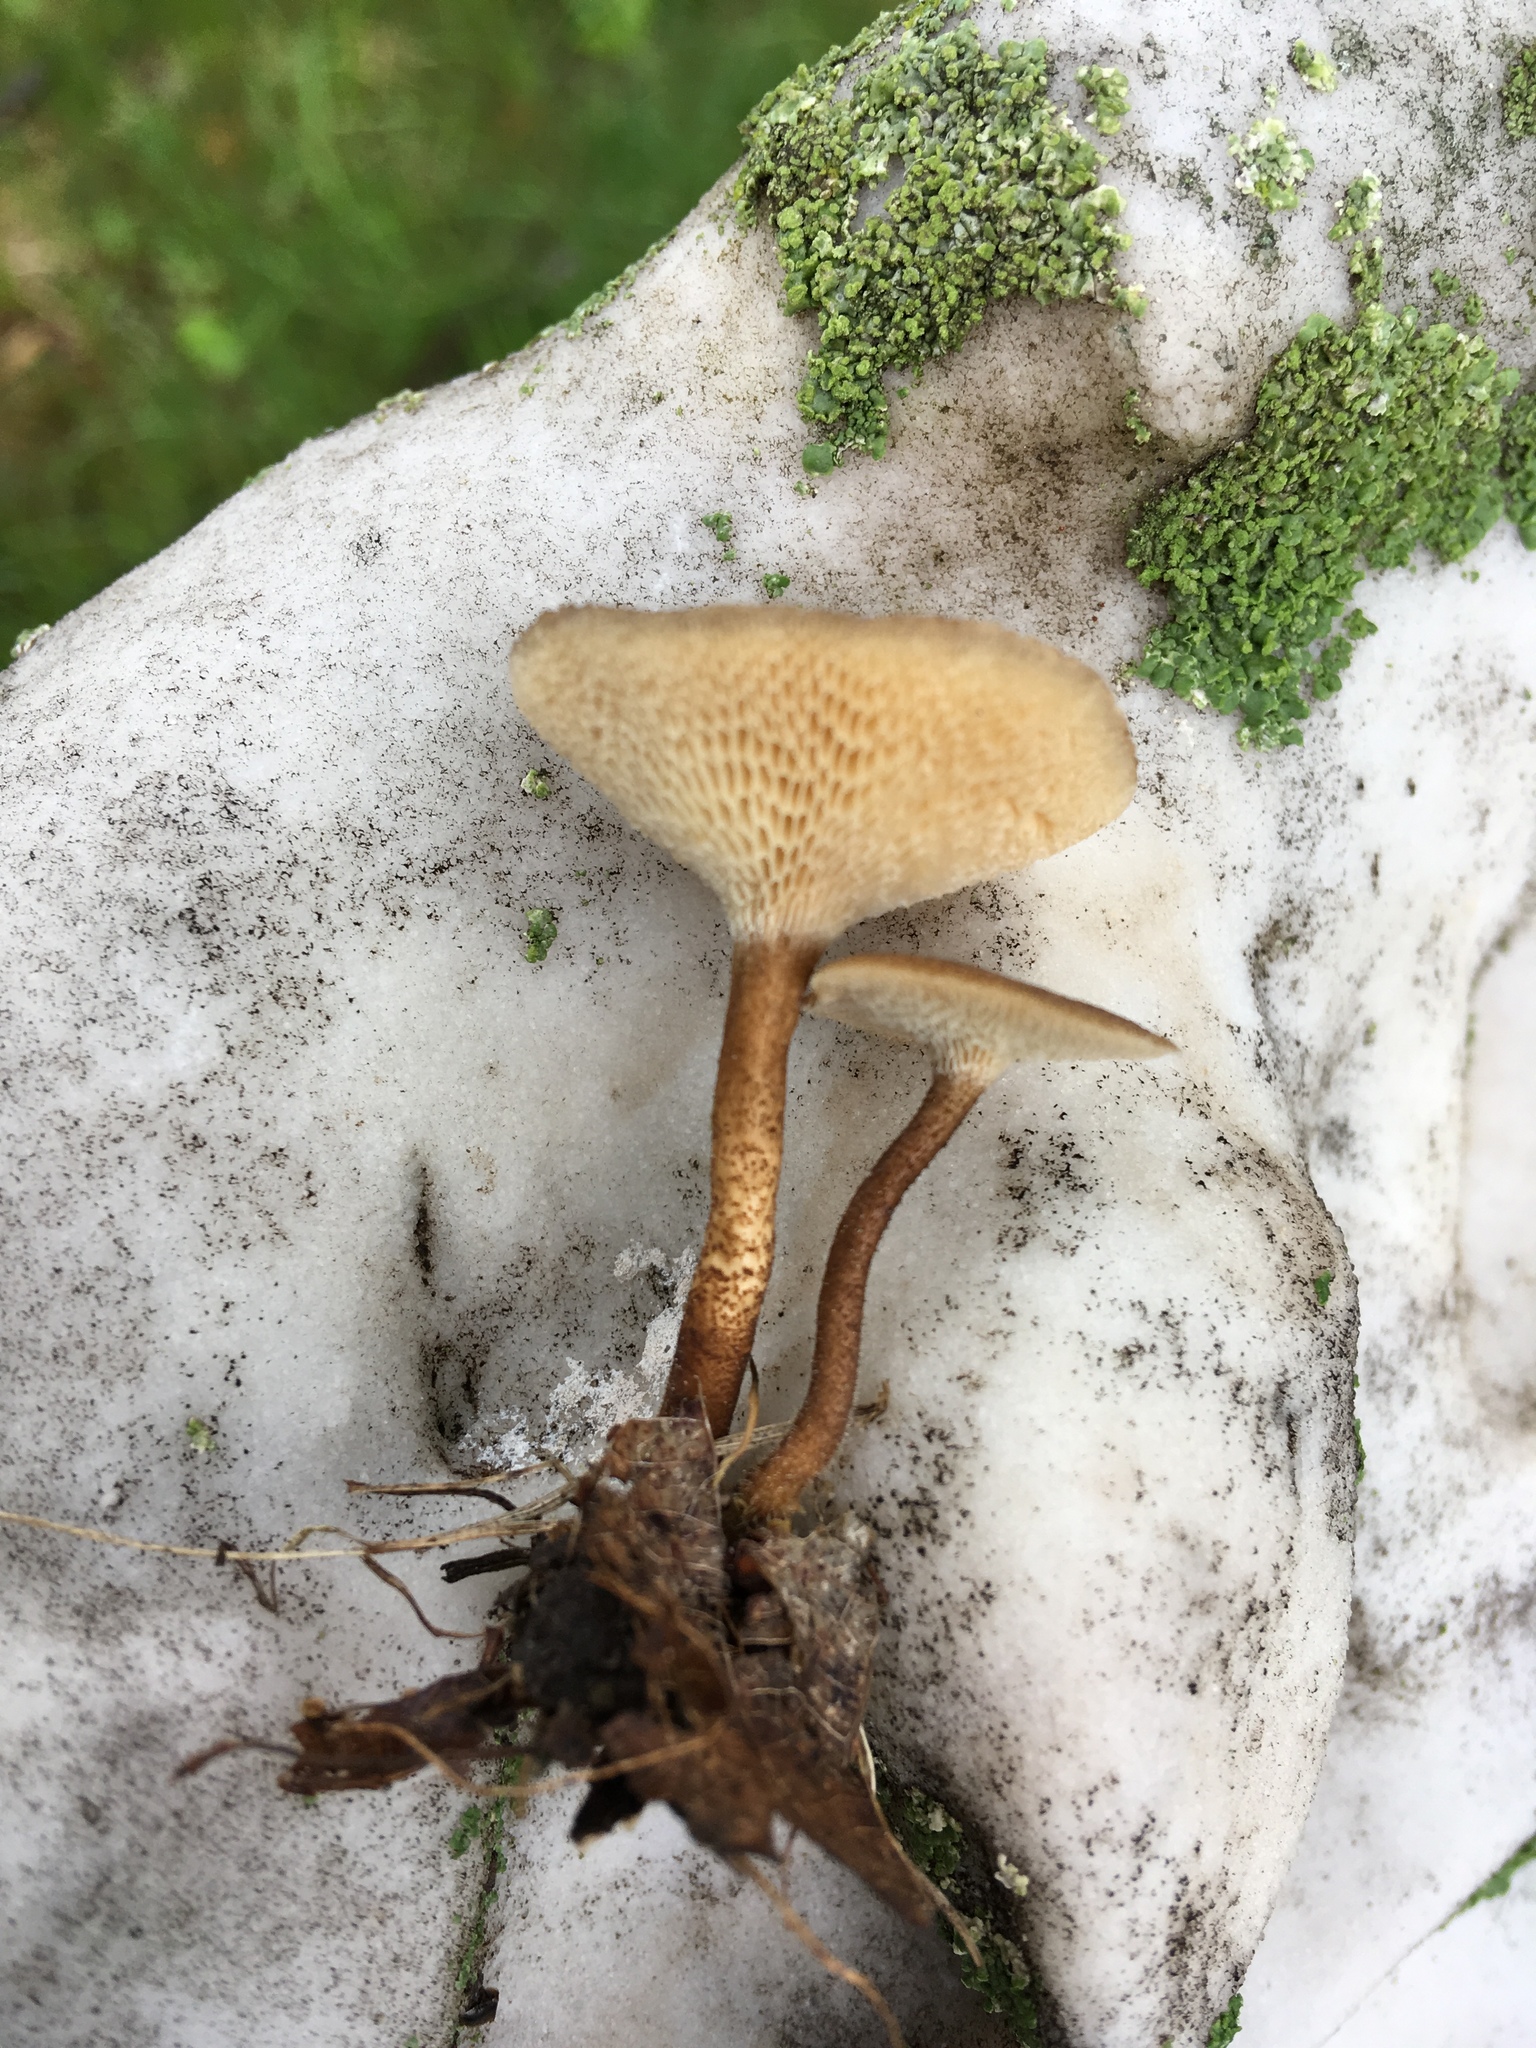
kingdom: Fungi
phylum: Basidiomycota
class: Agaricomycetes
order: Polyporales
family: Polyporaceae
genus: Lentinus
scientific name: Lentinus arcularius
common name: Spring polypore
